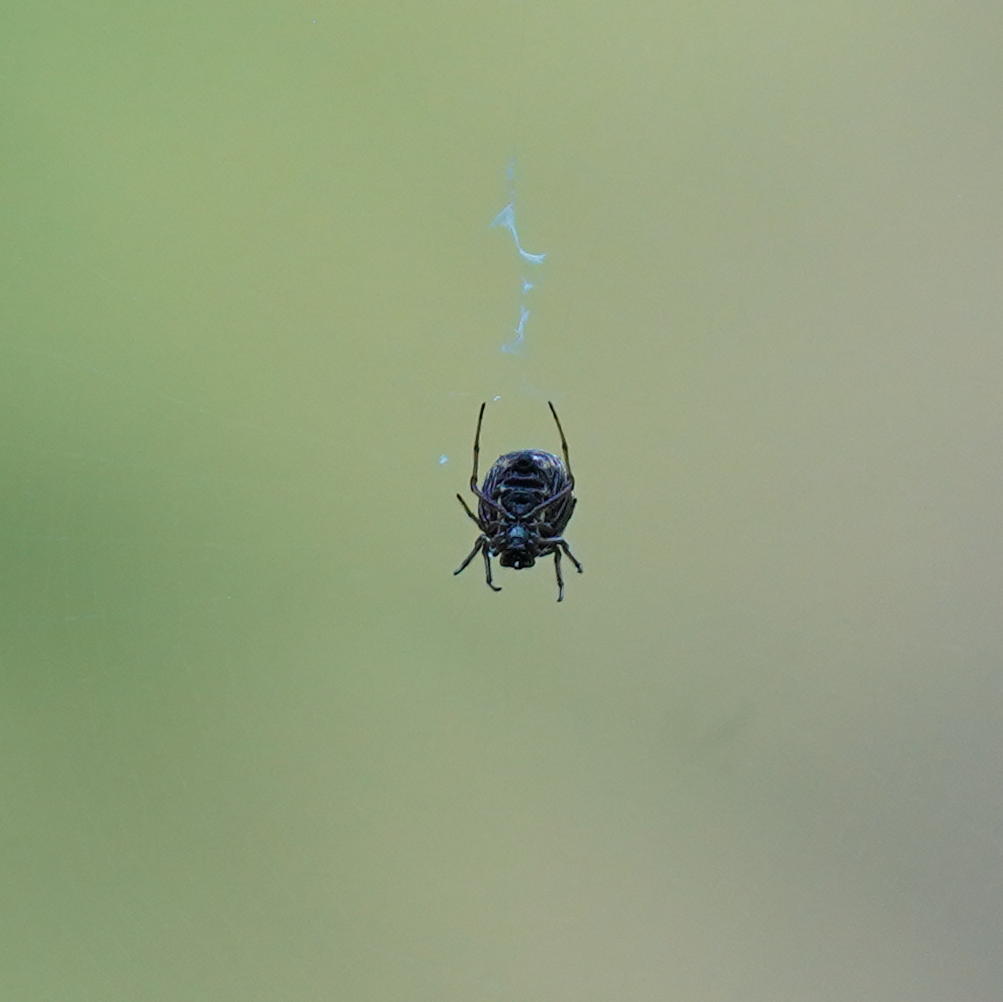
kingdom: Animalia
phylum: Arthropoda
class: Arachnida
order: Araneae
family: Araneidae
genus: Micrathena
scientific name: Micrathena mitrata
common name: Orb weavers
